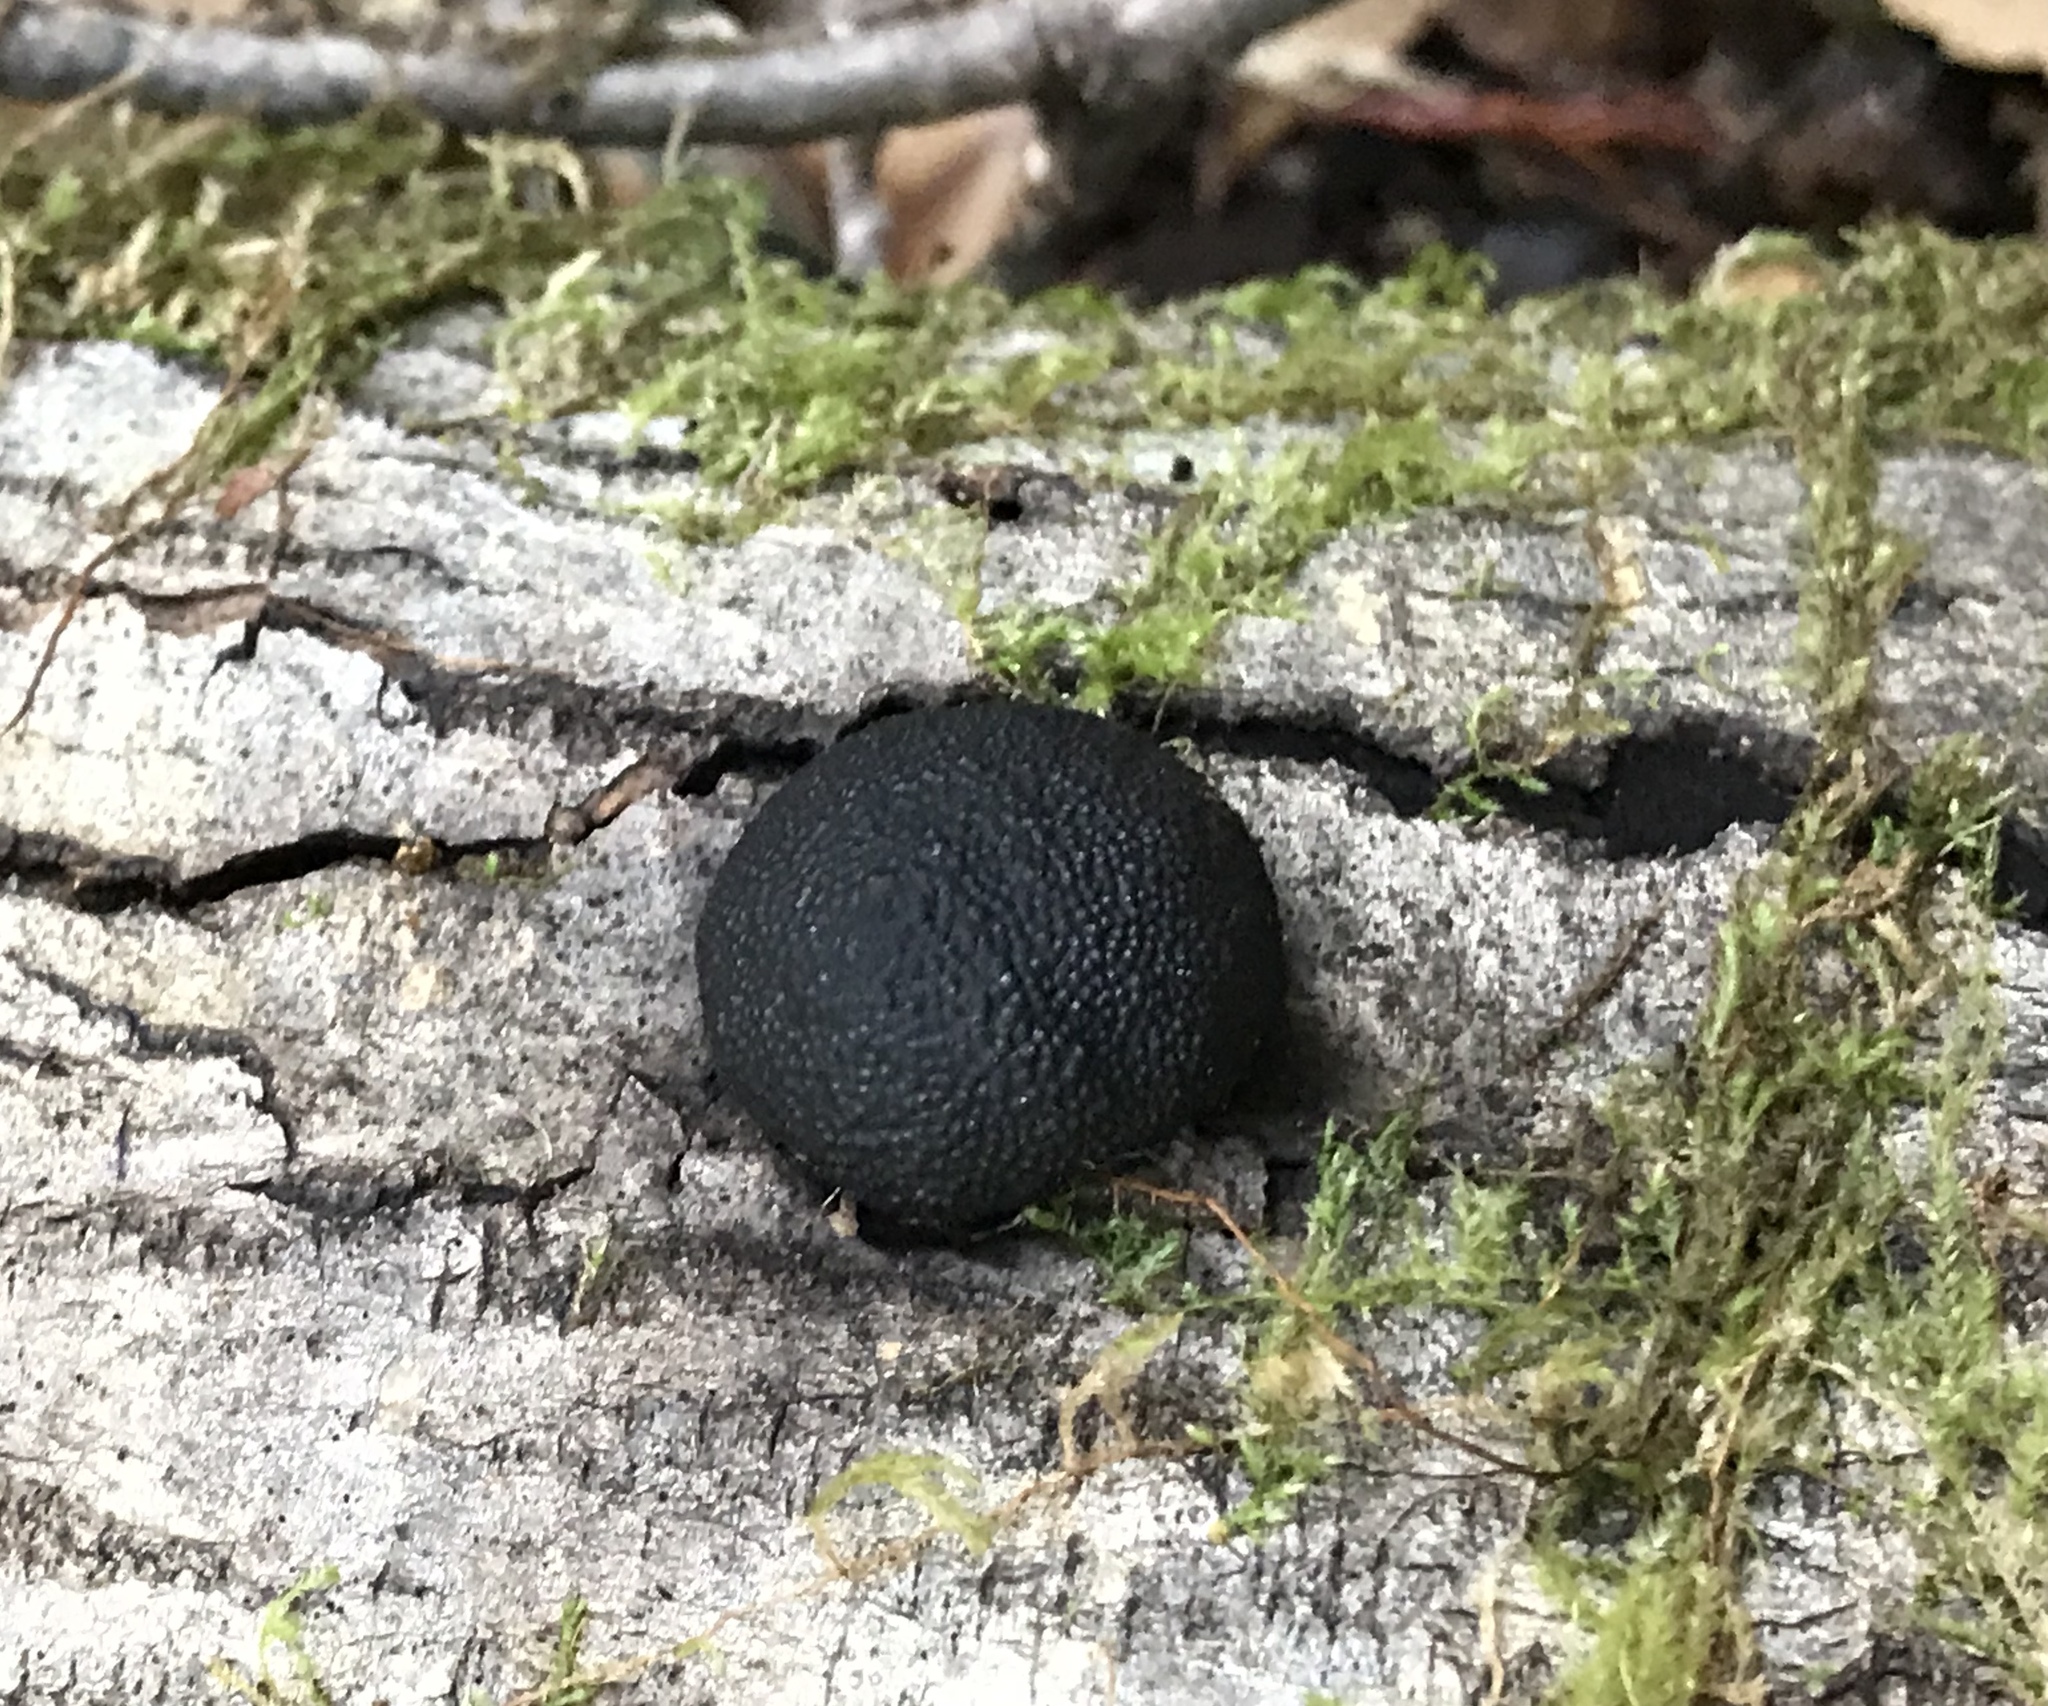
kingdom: Fungi
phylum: Ascomycota
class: Sordariomycetes
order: Xylariales
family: Hypoxylaceae
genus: Annulohypoxylon
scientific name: Annulohypoxylon thouarsianum
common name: Cramp balls
